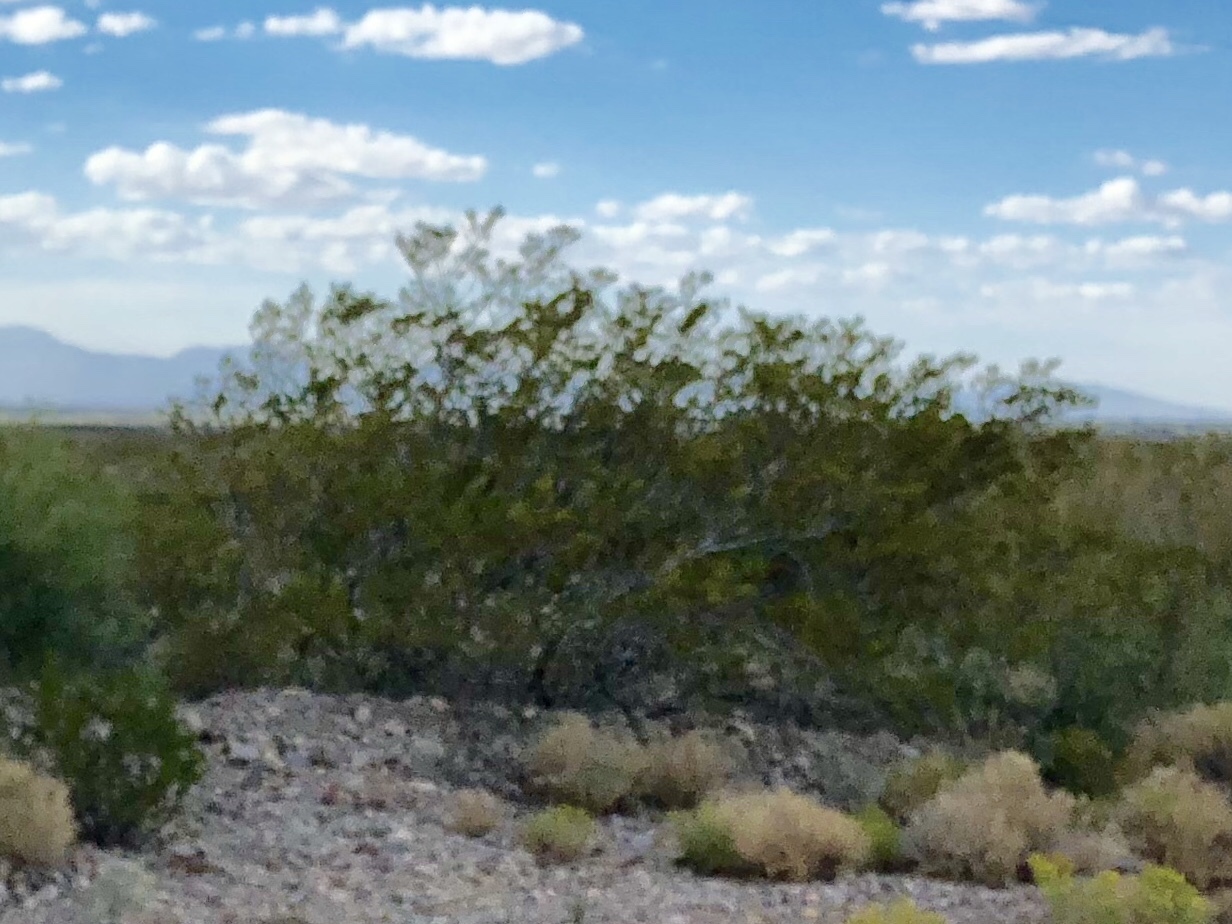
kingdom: Plantae
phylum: Tracheophyta
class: Magnoliopsida
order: Zygophyllales
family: Zygophyllaceae
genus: Larrea
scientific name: Larrea tridentata
